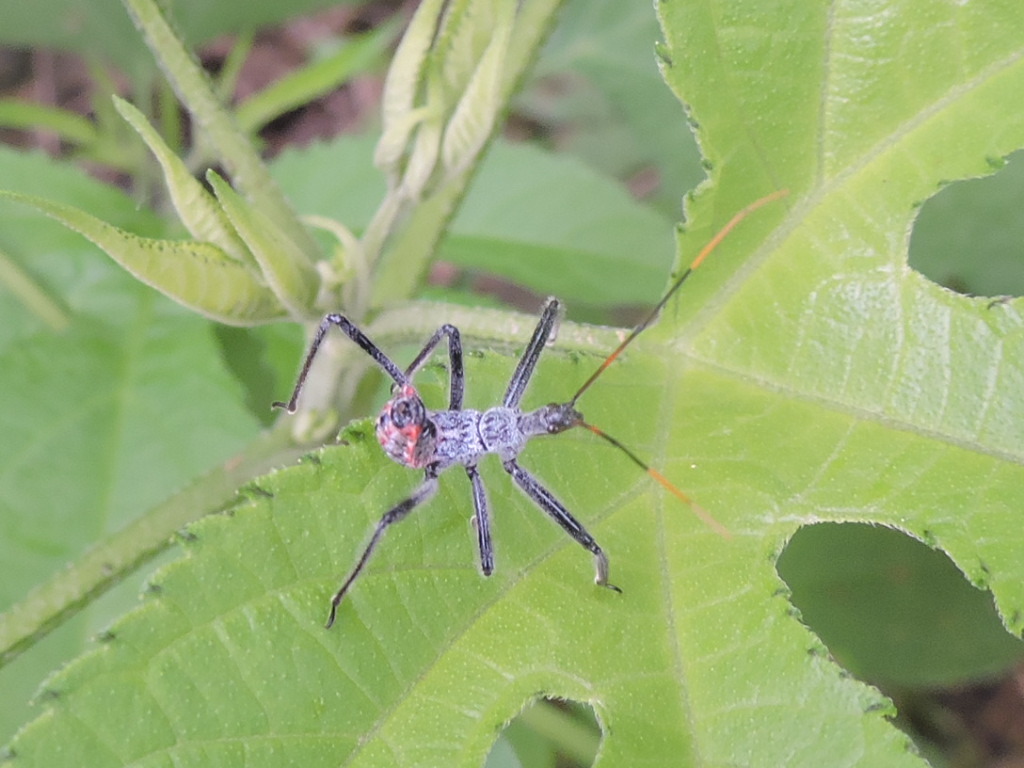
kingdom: Animalia
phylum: Arthropoda
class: Insecta
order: Hemiptera
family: Reduviidae
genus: Arilus
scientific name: Arilus cristatus
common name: North american wheel bug
